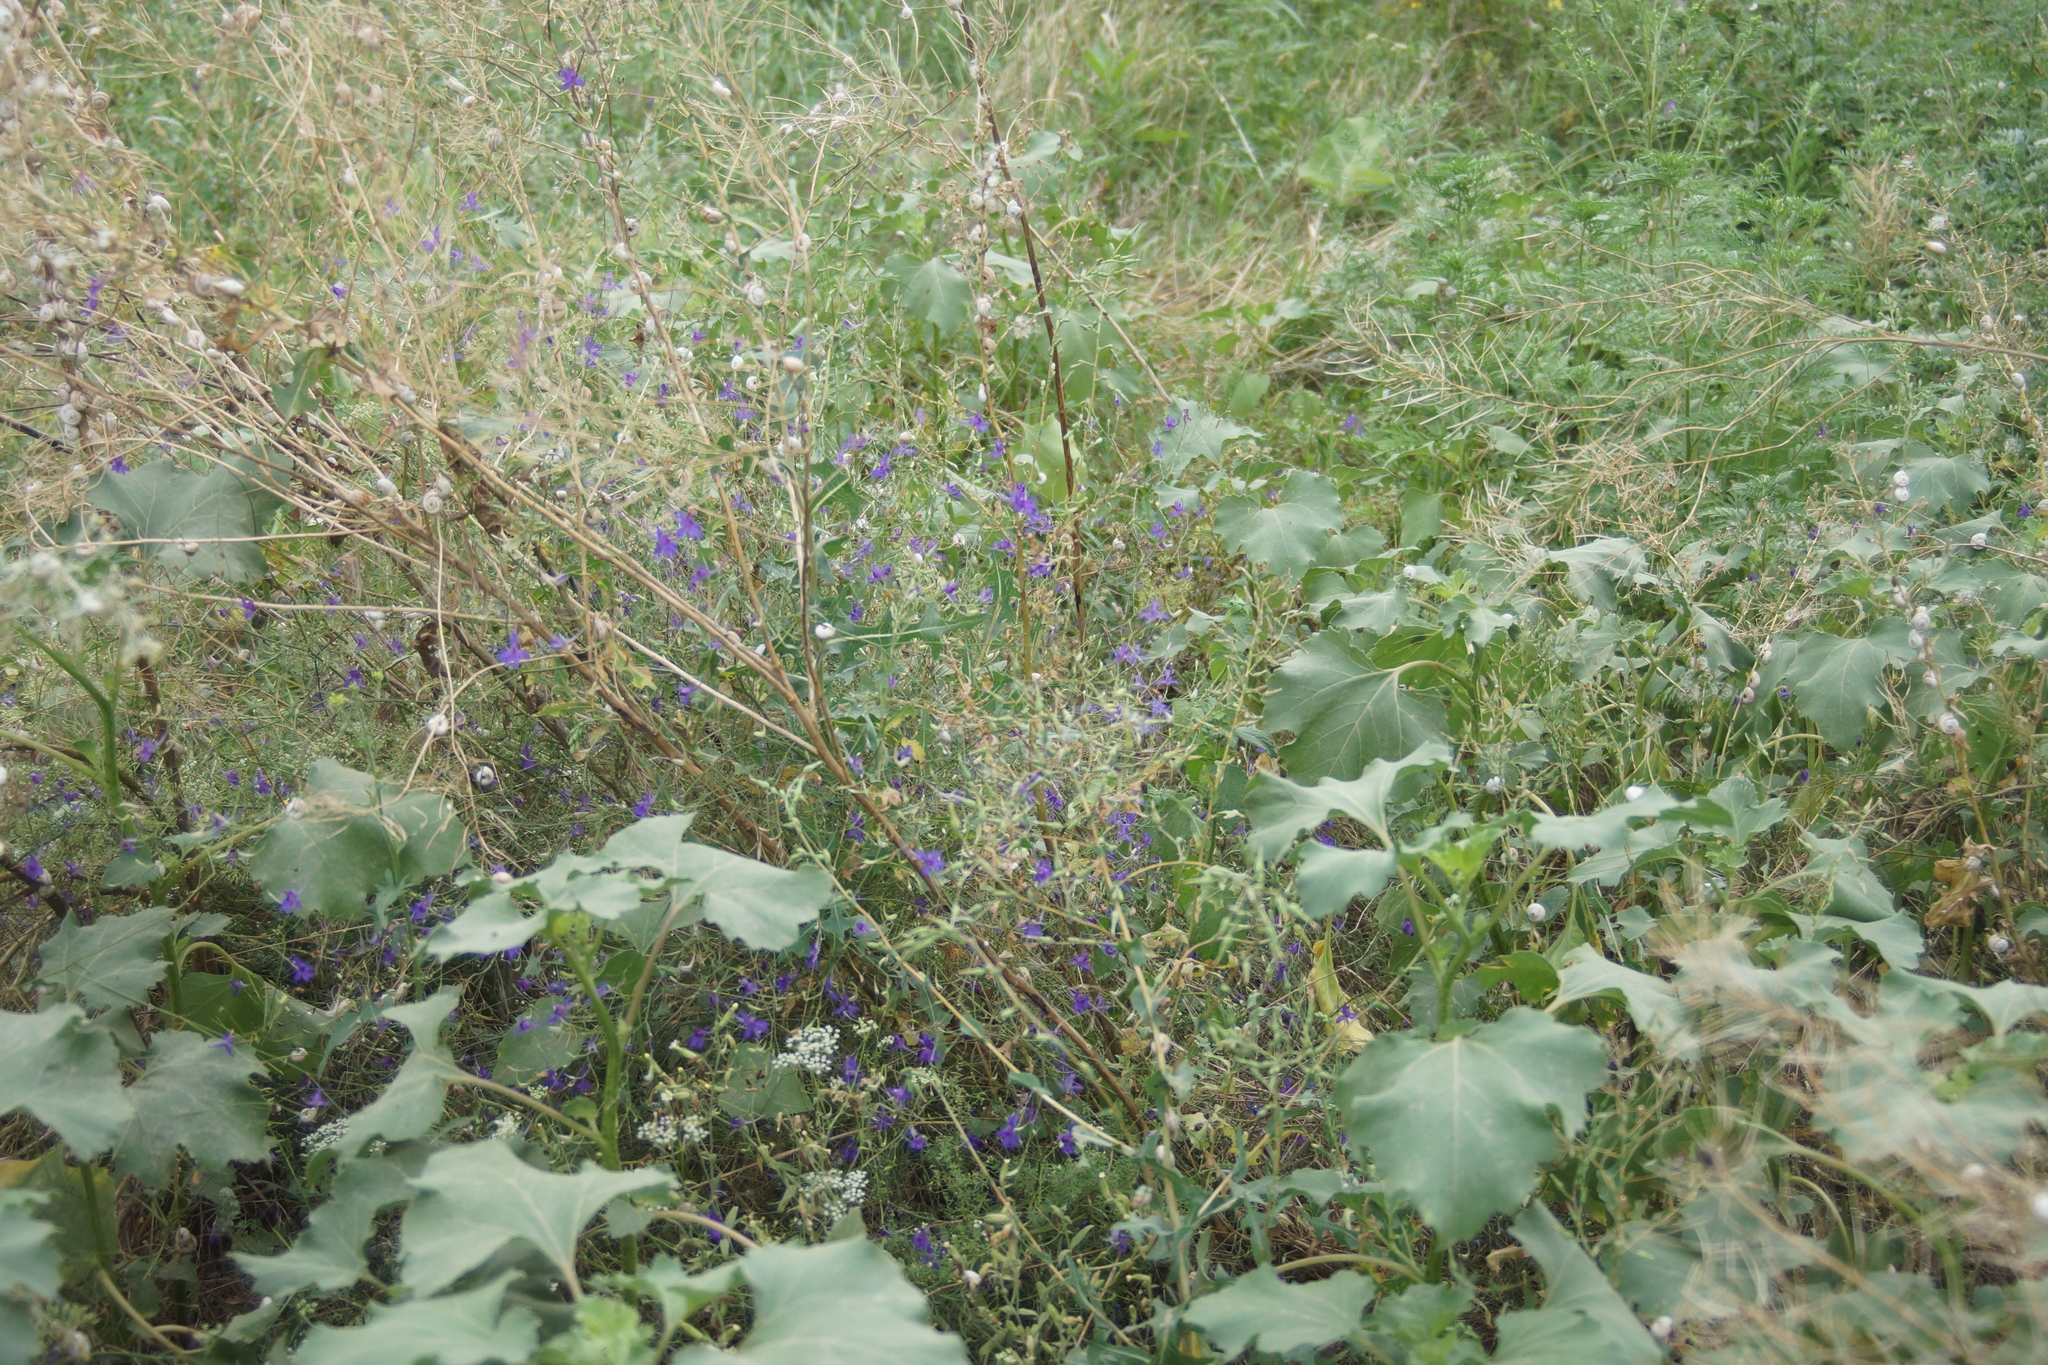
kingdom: Plantae
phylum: Tracheophyta
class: Magnoliopsida
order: Ranunculales
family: Ranunculaceae
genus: Delphinium
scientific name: Delphinium consolida
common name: Branching larkspur
